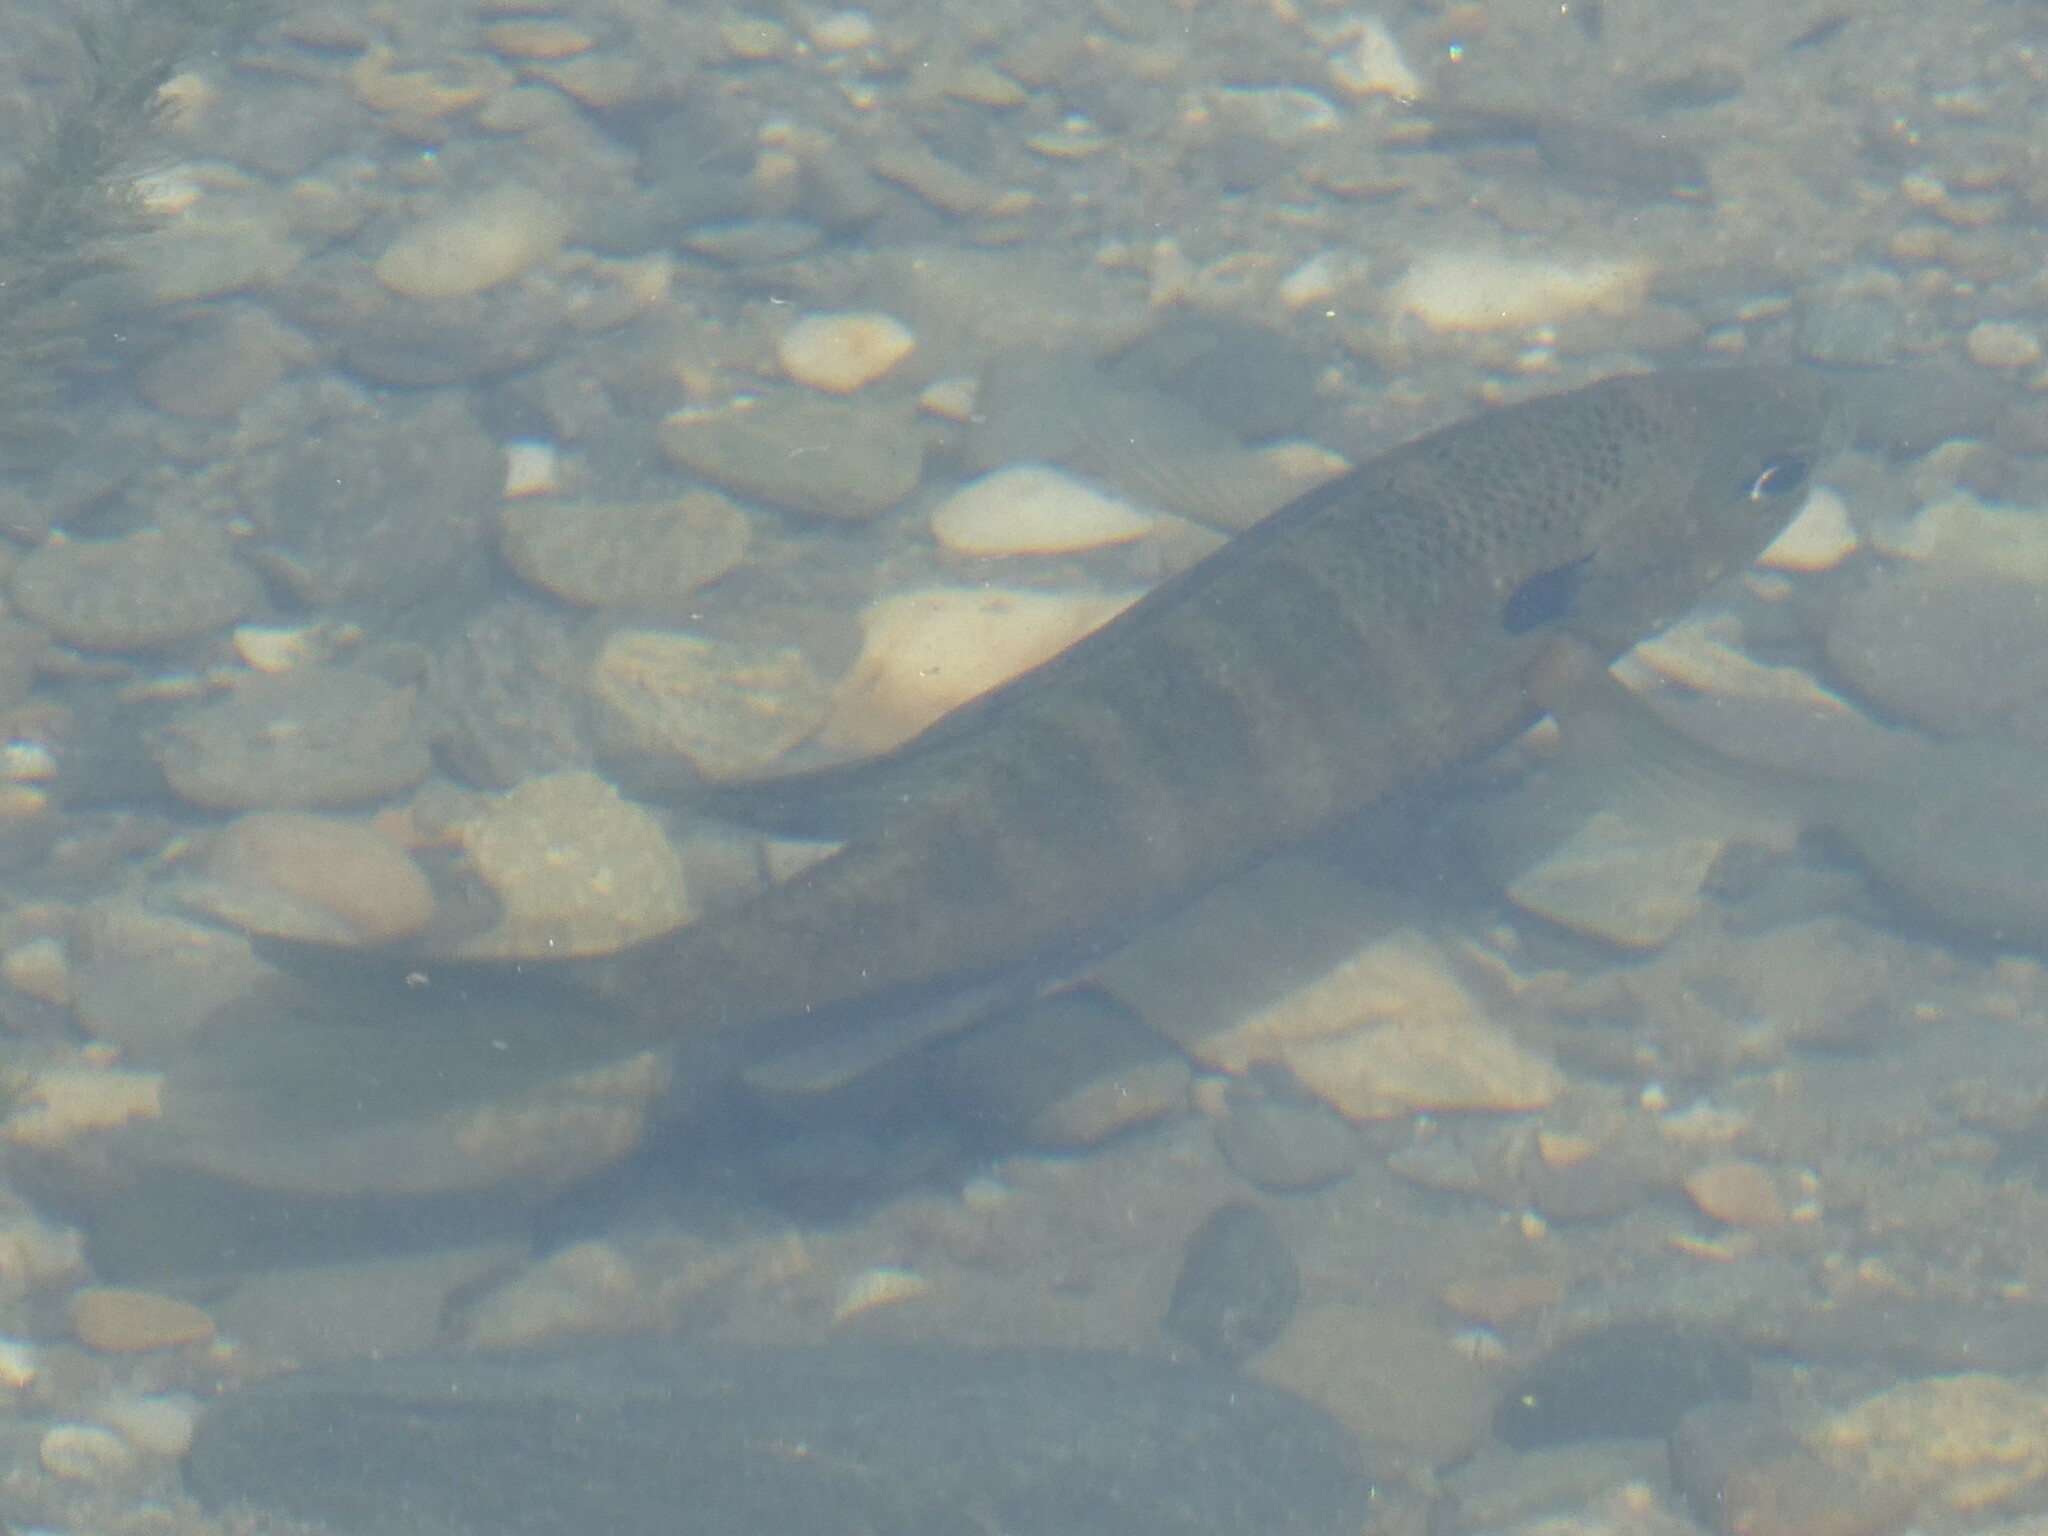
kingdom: Animalia
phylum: Chordata
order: Perciformes
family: Centrarchidae
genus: Lepomis
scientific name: Lepomis macrochirus
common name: Bluegill
